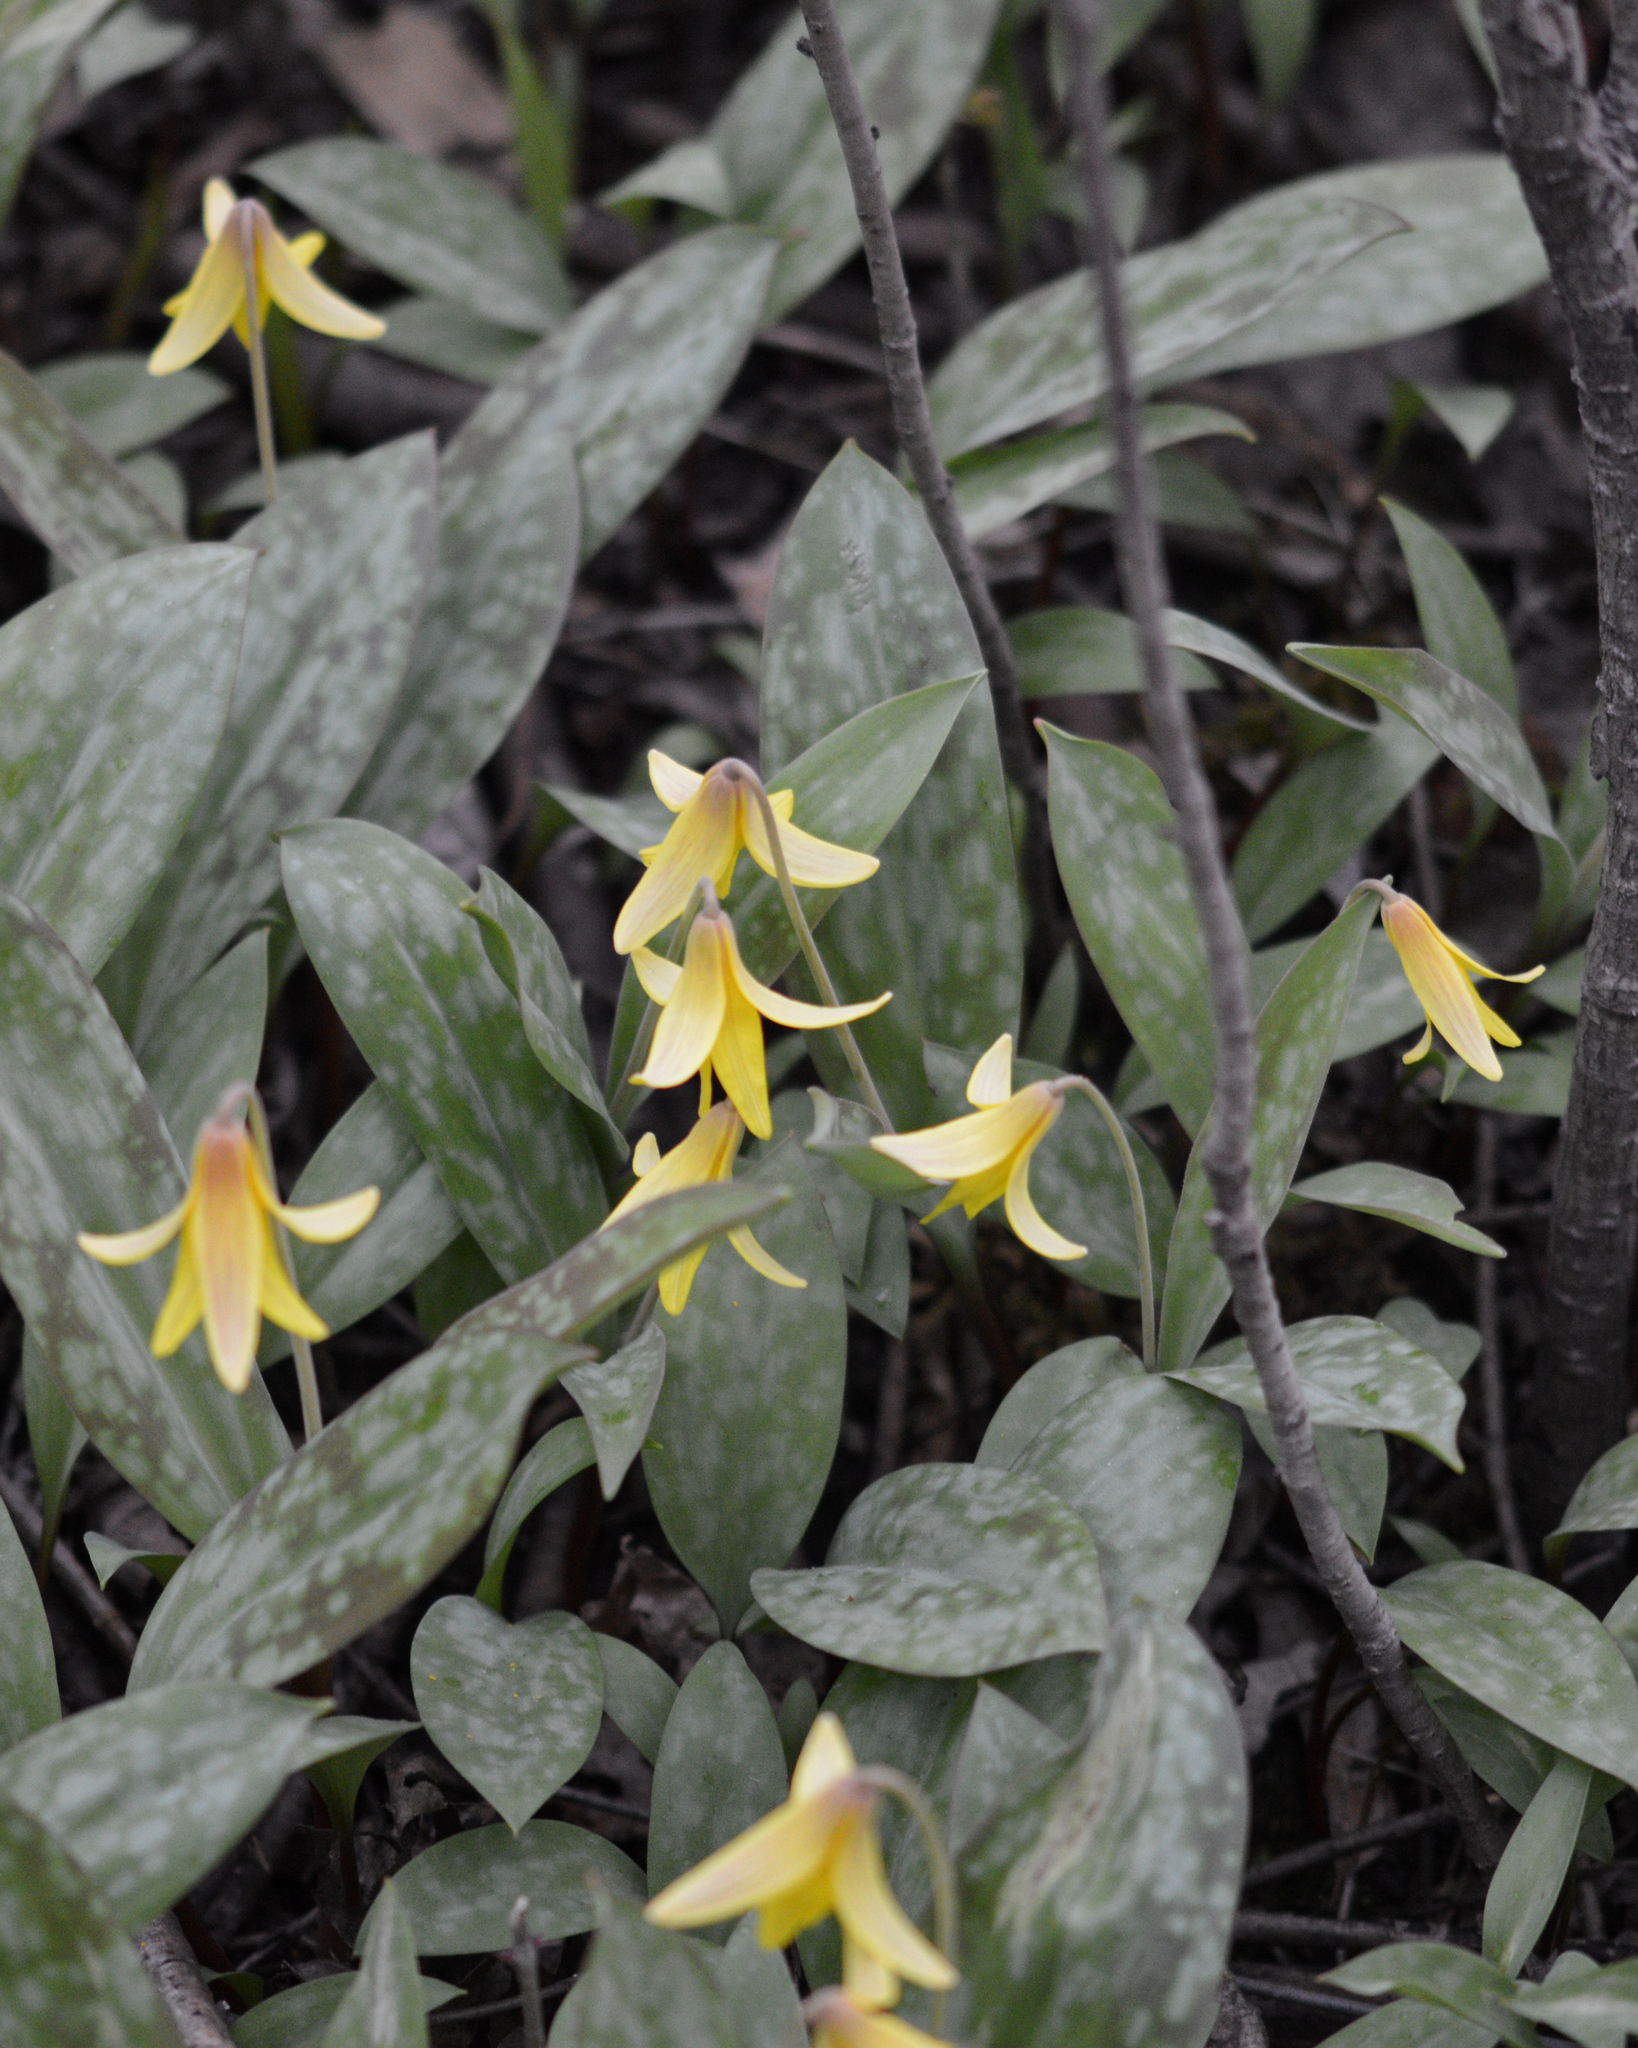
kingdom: Plantae
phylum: Tracheophyta
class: Liliopsida
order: Liliales
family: Liliaceae
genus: Erythronium
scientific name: Erythronium americanum
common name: Yellow adder's-tongue
